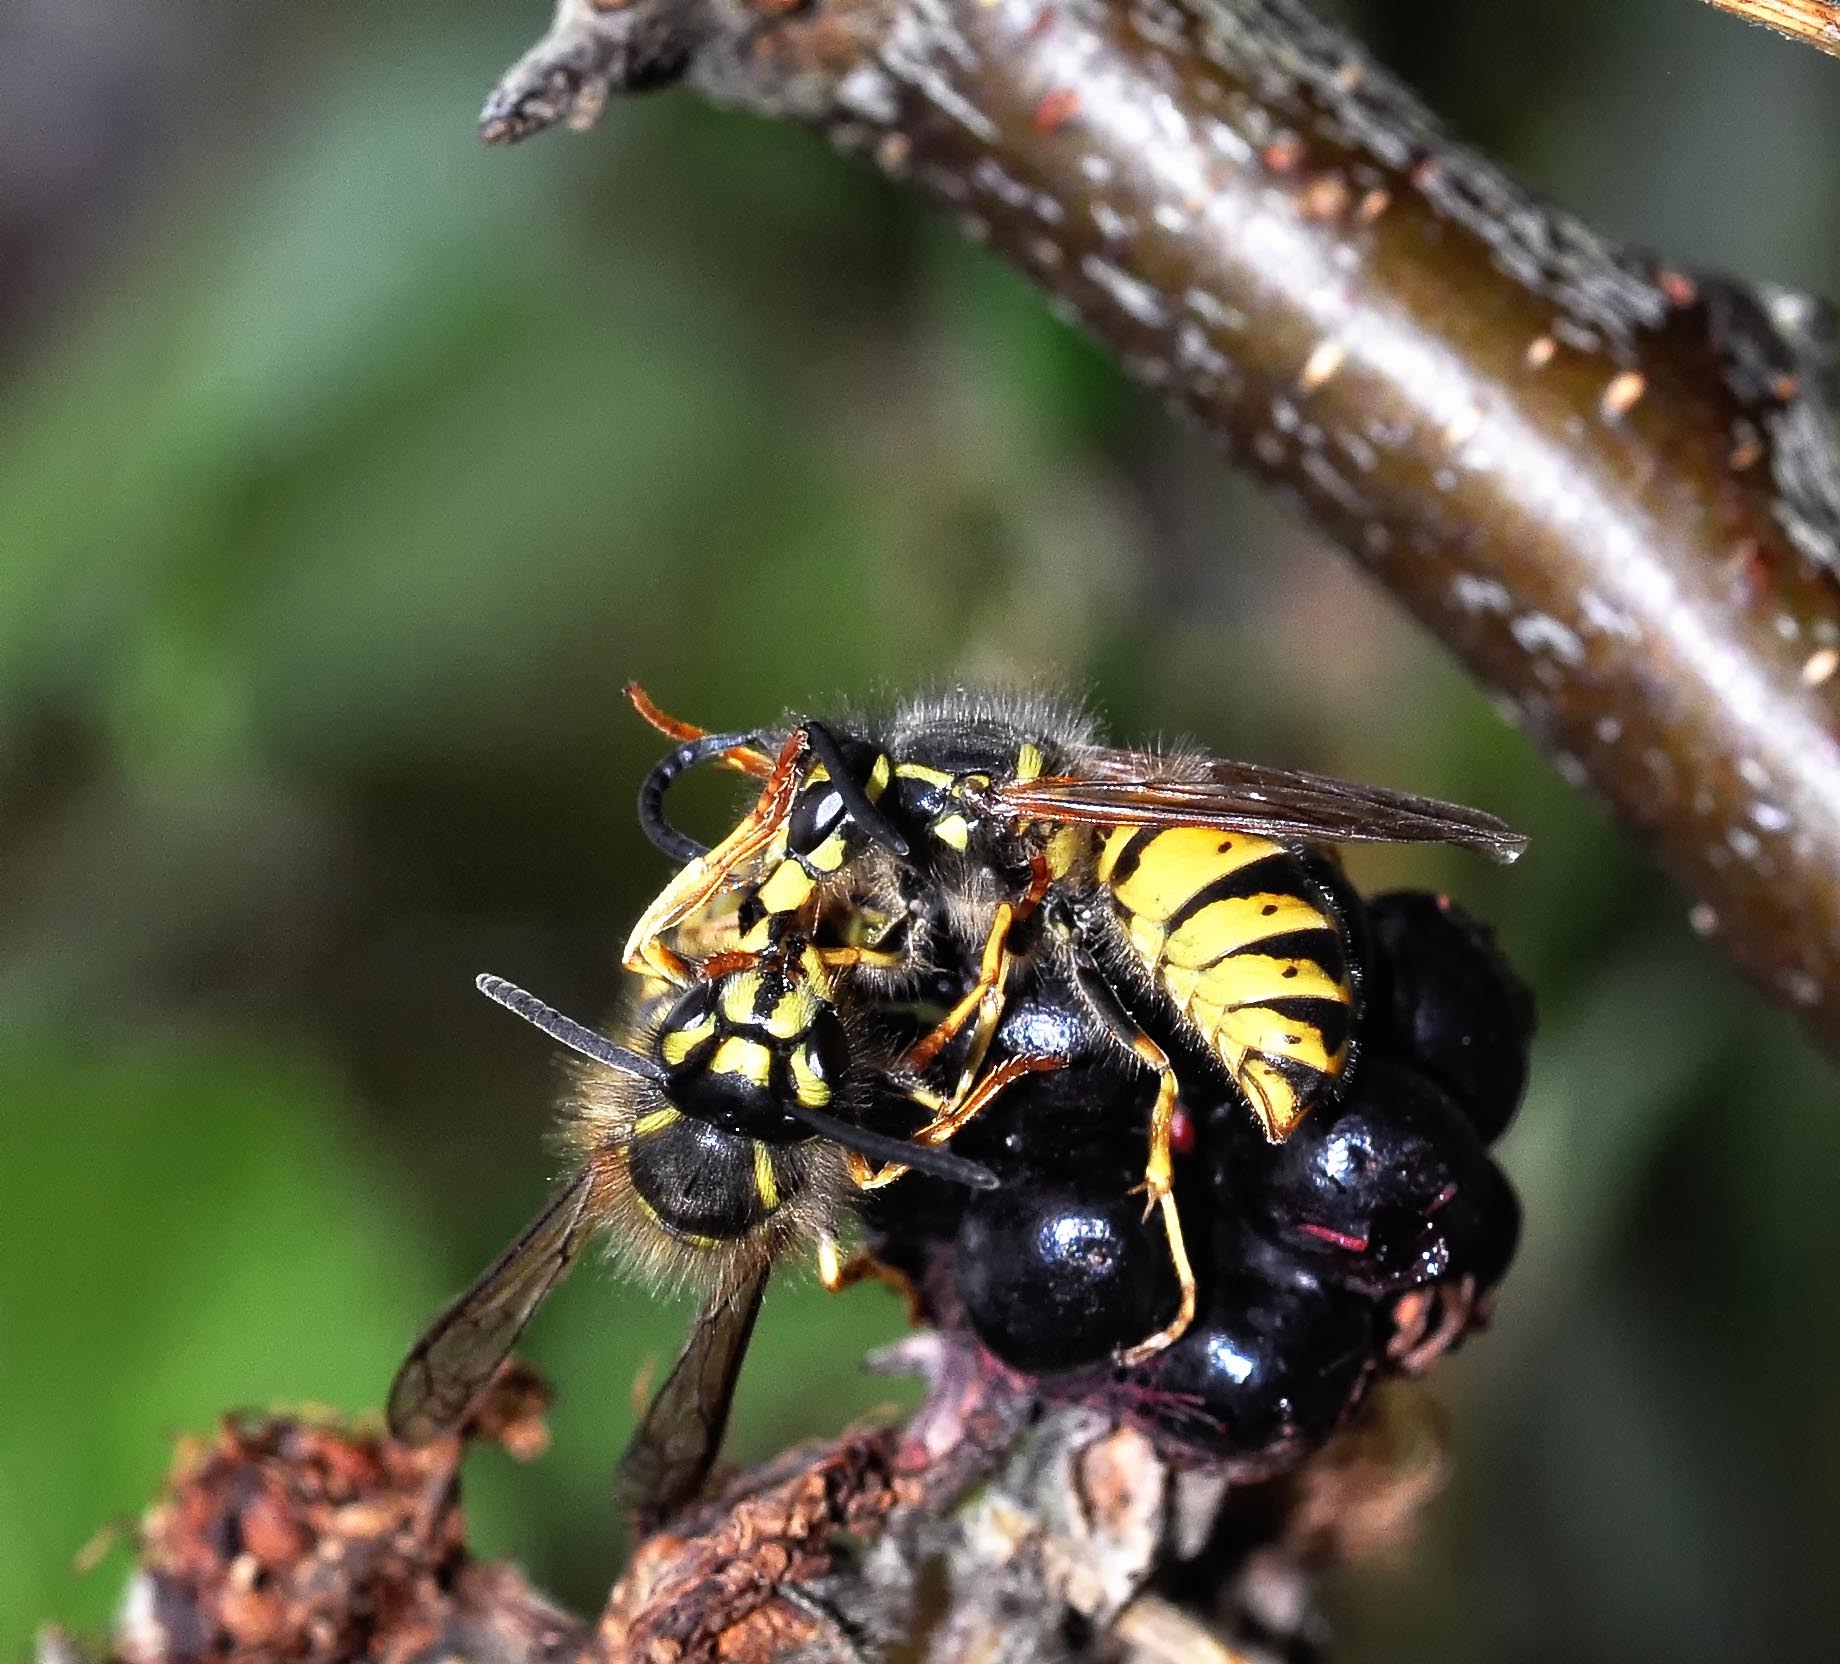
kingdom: Animalia
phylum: Arthropoda
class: Insecta
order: Hymenoptera
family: Vespidae
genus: Vespula
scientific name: Vespula vulgaris
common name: Common wasp
